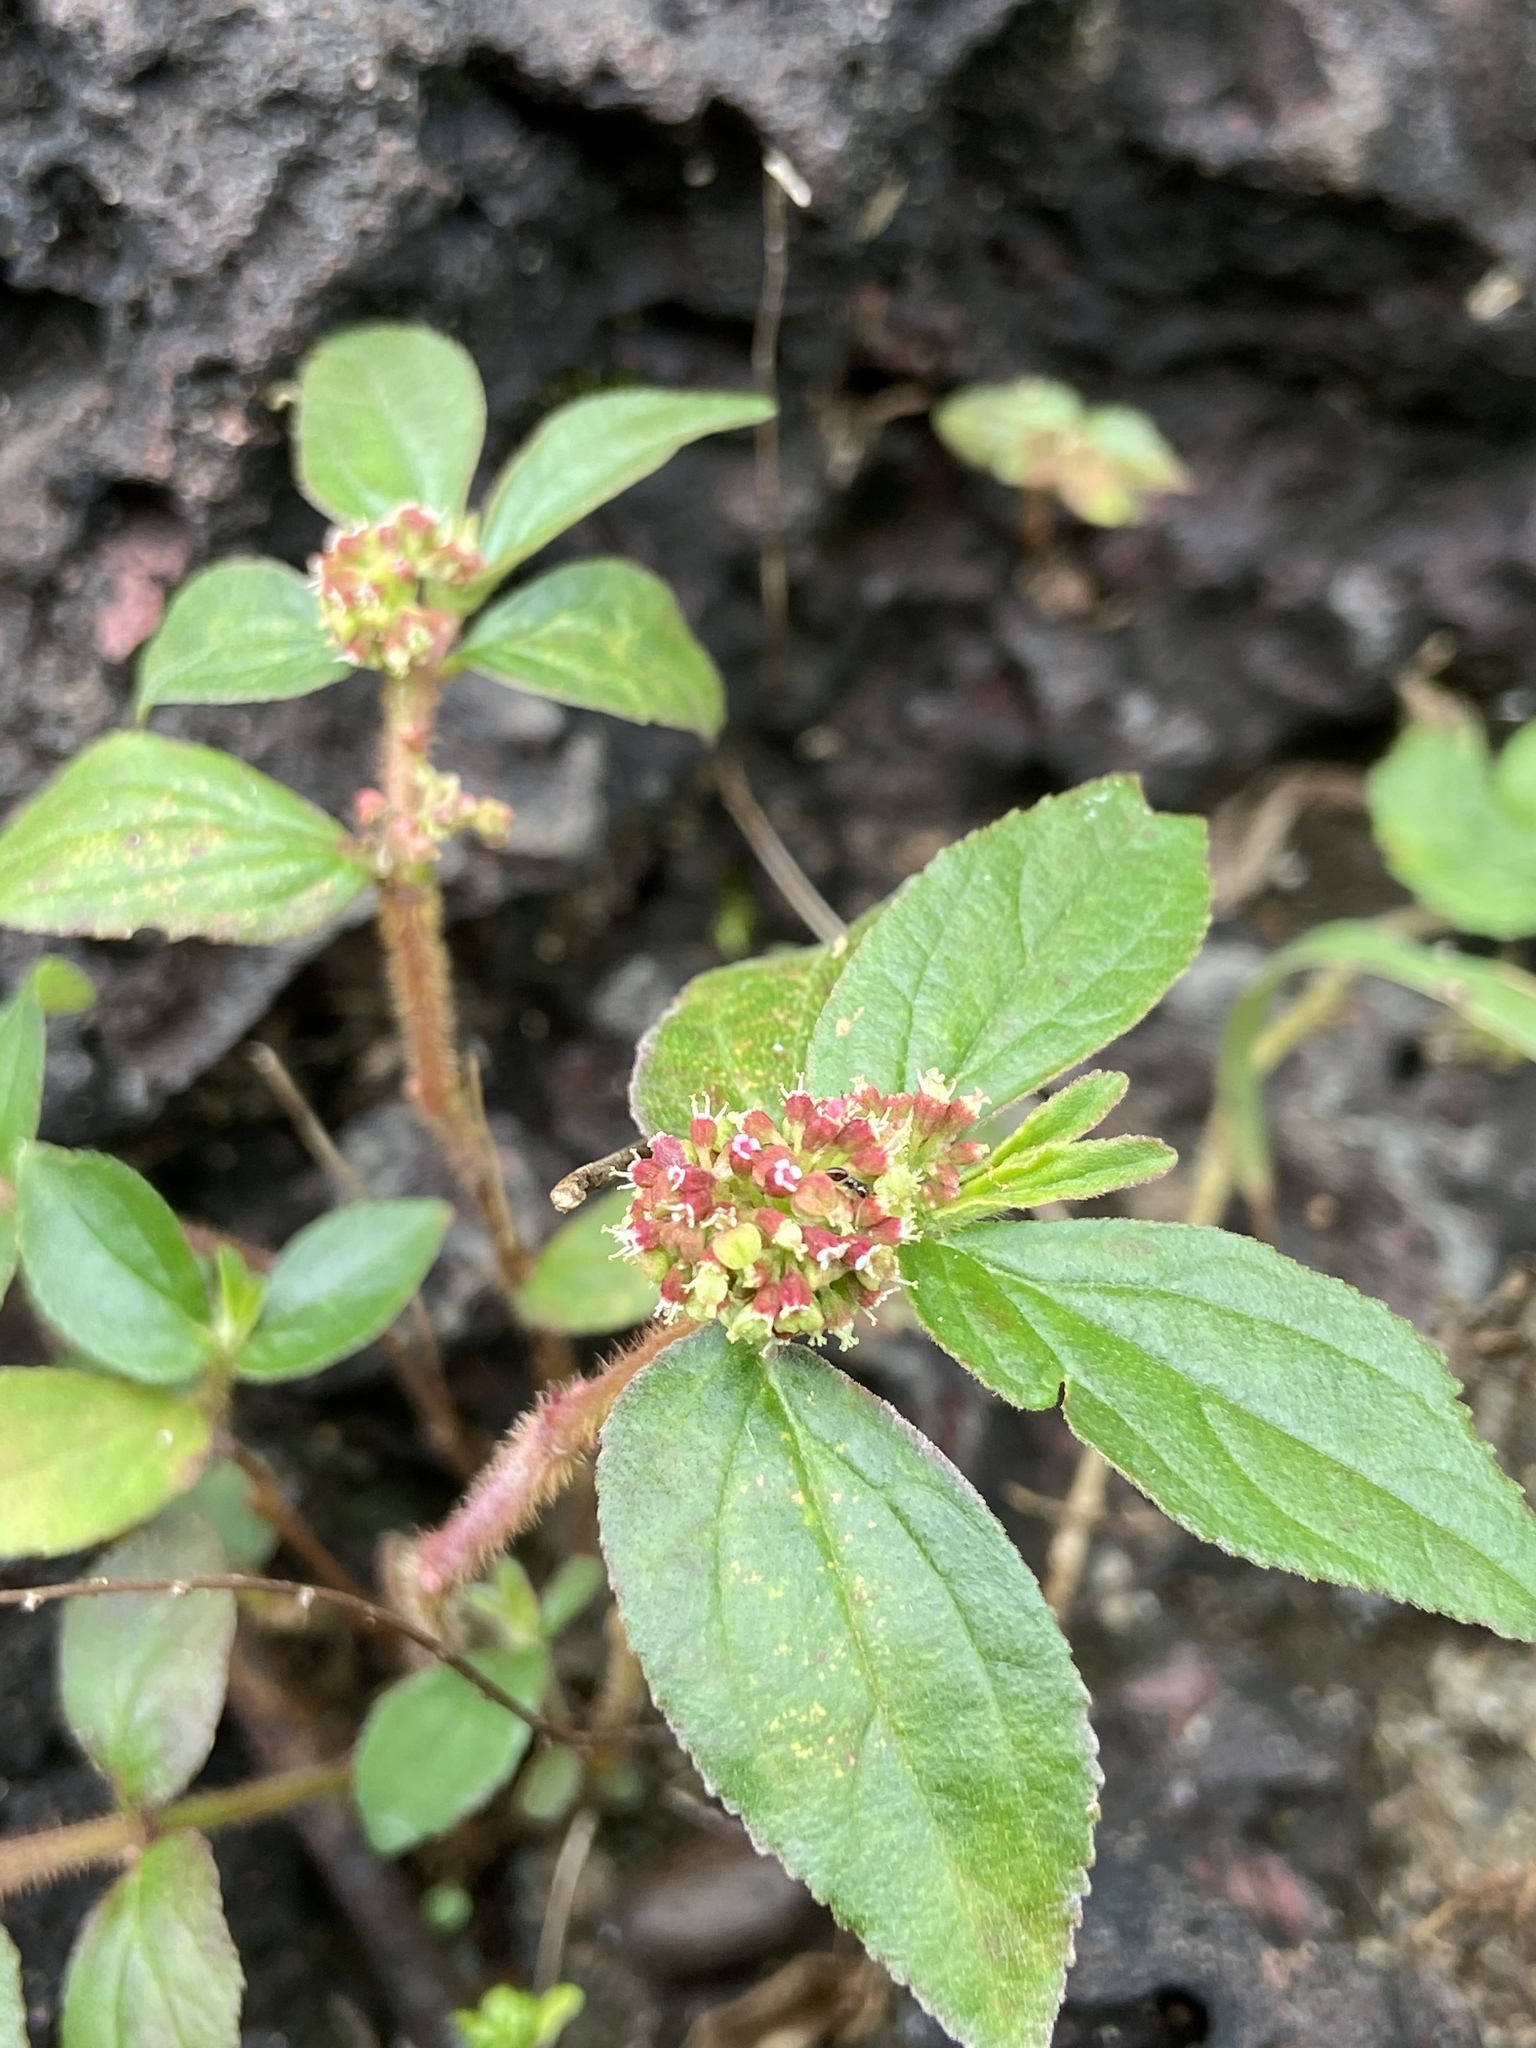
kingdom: Plantae
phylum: Tracheophyta
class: Magnoliopsida
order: Malpighiales
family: Euphorbiaceae
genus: Euphorbia
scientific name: Euphorbia hirta
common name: Pillpod sandmat
